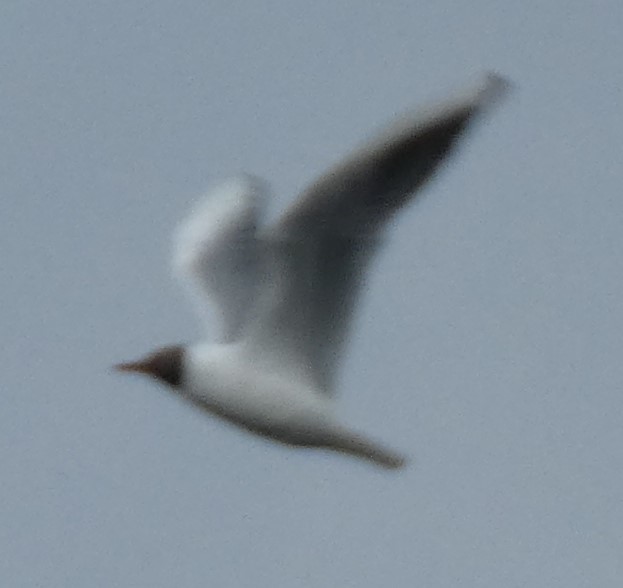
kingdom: Animalia
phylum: Chordata
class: Aves
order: Charadriiformes
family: Laridae
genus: Chroicocephalus
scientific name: Chroicocephalus ridibundus
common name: Black-headed gull
